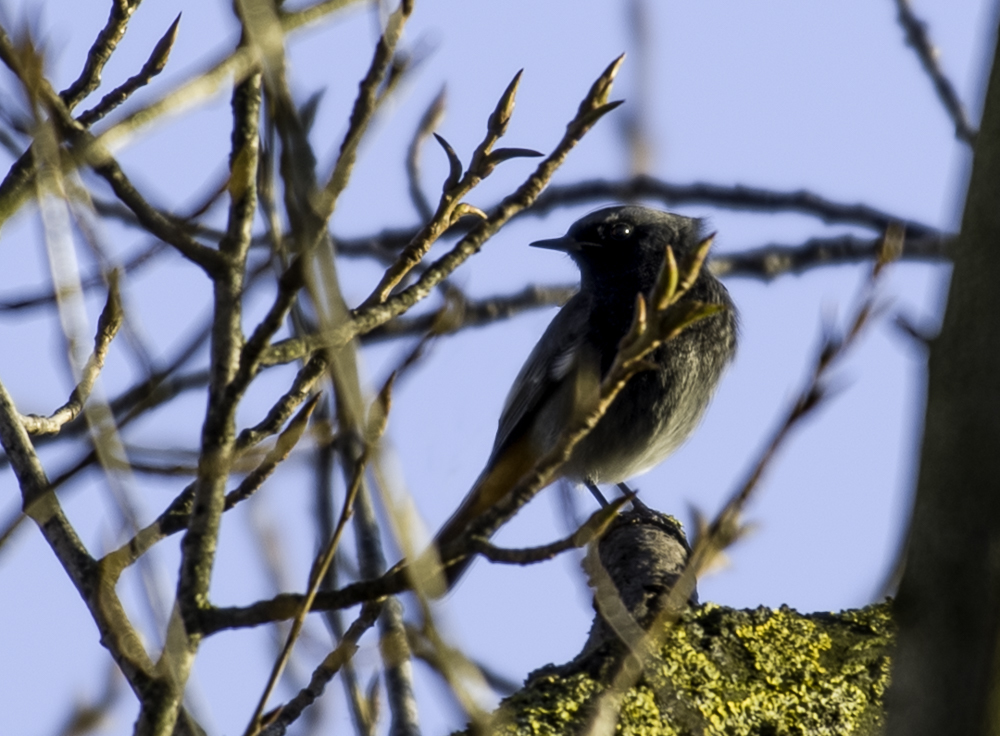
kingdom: Animalia
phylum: Chordata
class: Aves
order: Passeriformes
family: Muscicapidae
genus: Phoenicurus
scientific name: Phoenicurus ochruros
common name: Black redstart
